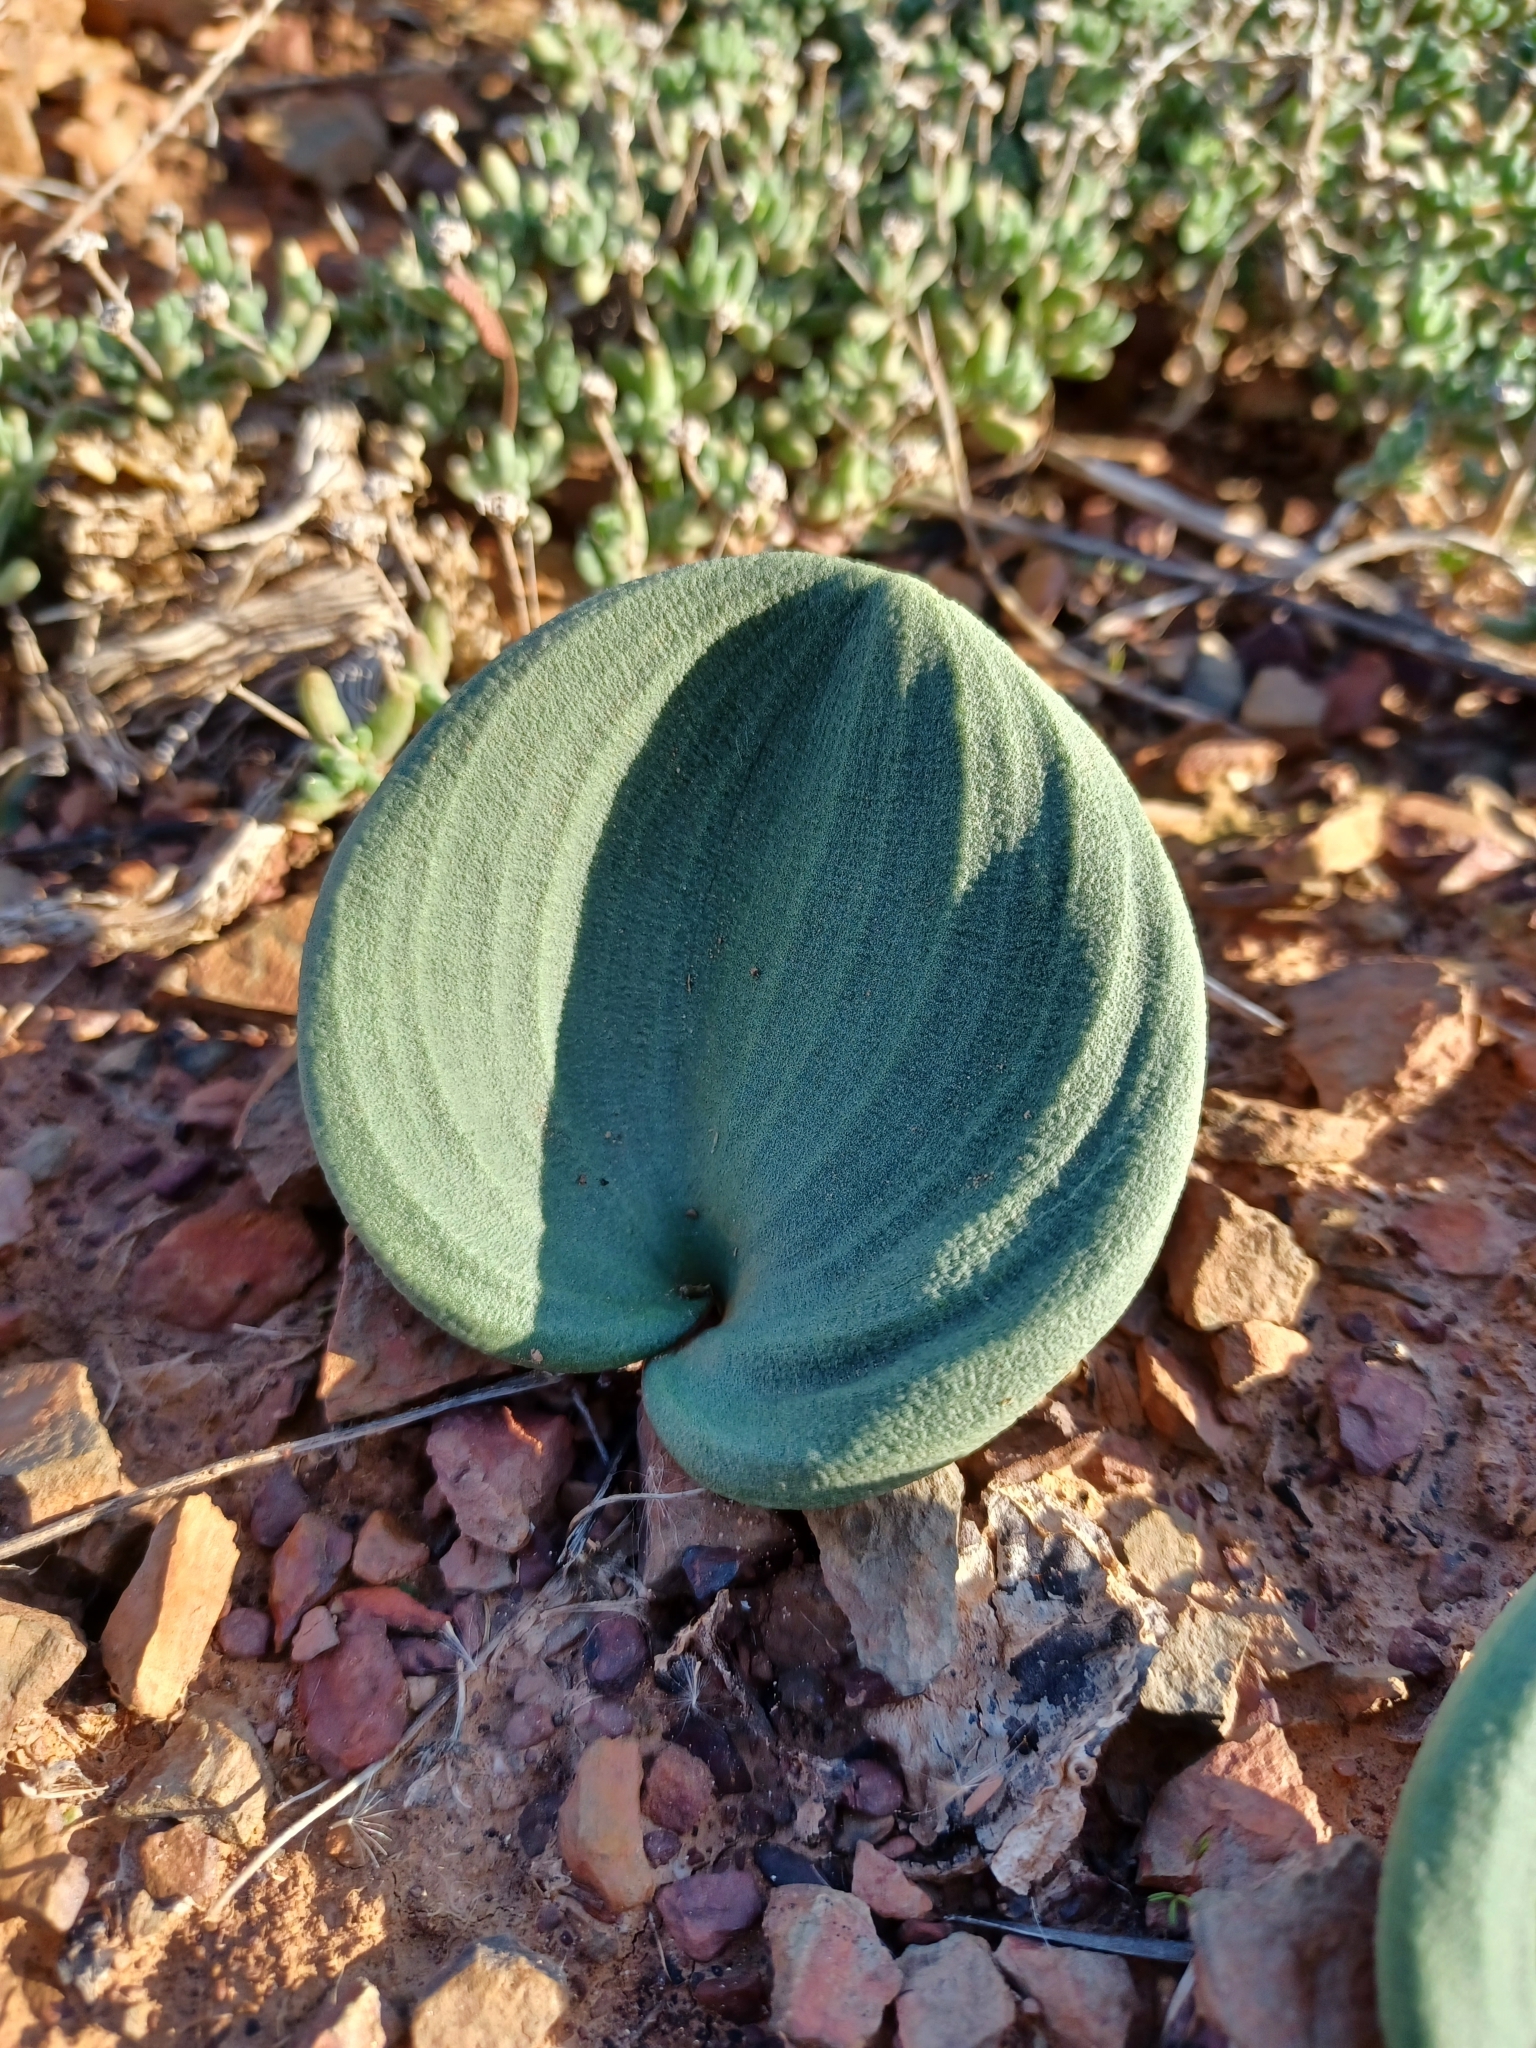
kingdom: Plantae
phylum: Tracheophyta
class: Liliopsida
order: Asparagales
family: Asparagaceae
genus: Eriospermum
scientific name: Eriospermum capense
